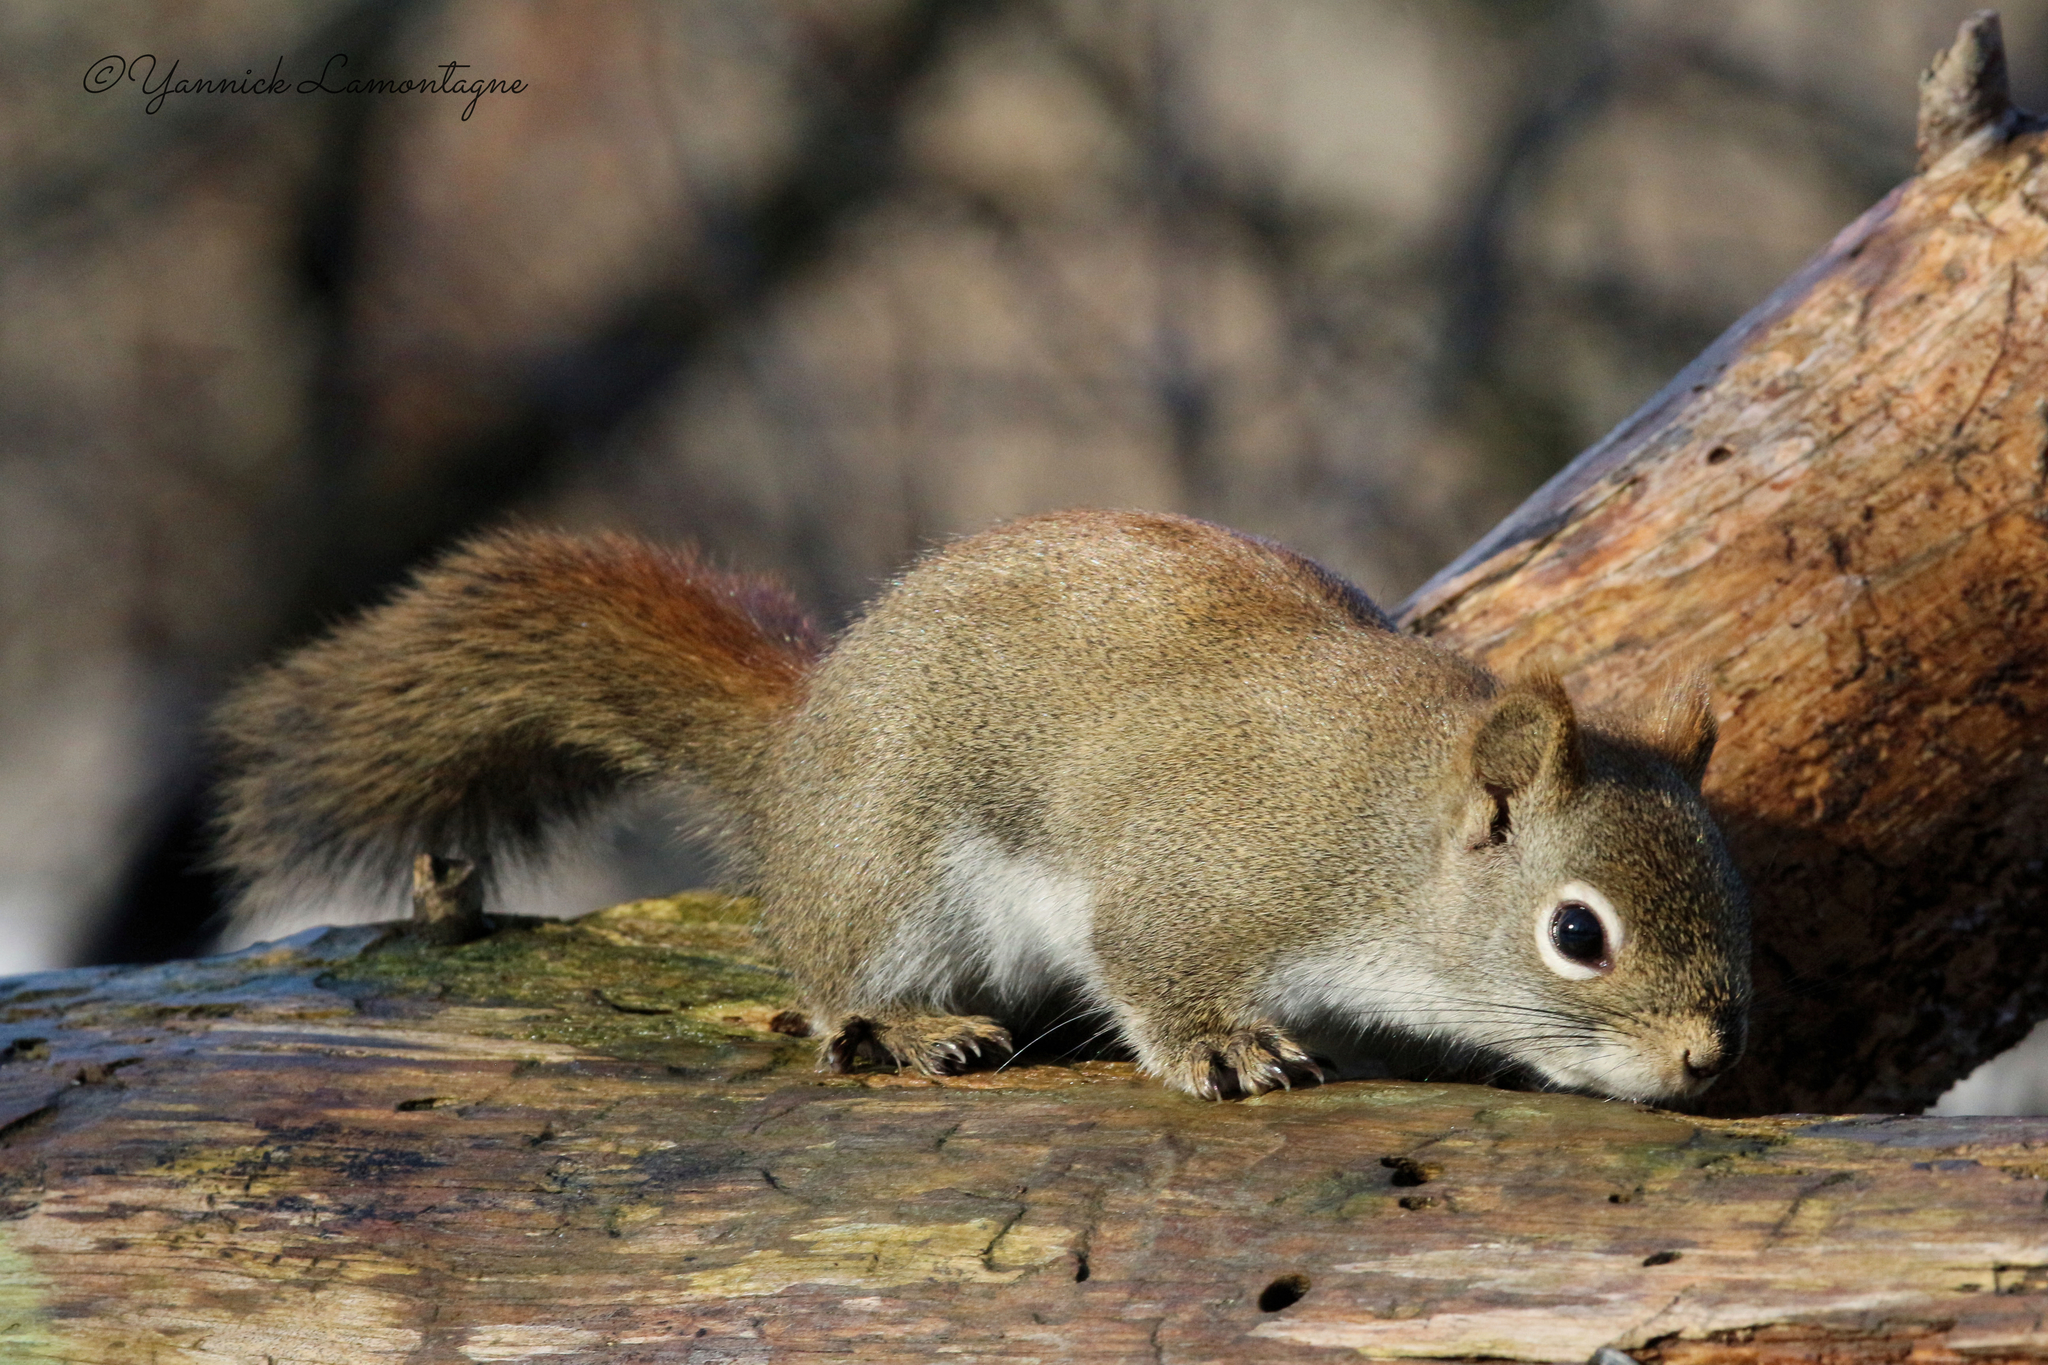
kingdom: Animalia
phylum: Chordata
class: Mammalia
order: Rodentia
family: Sciuridae
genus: Tamiasciurus
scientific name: Tamiasciurus hudsonicus
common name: Red squirrel
